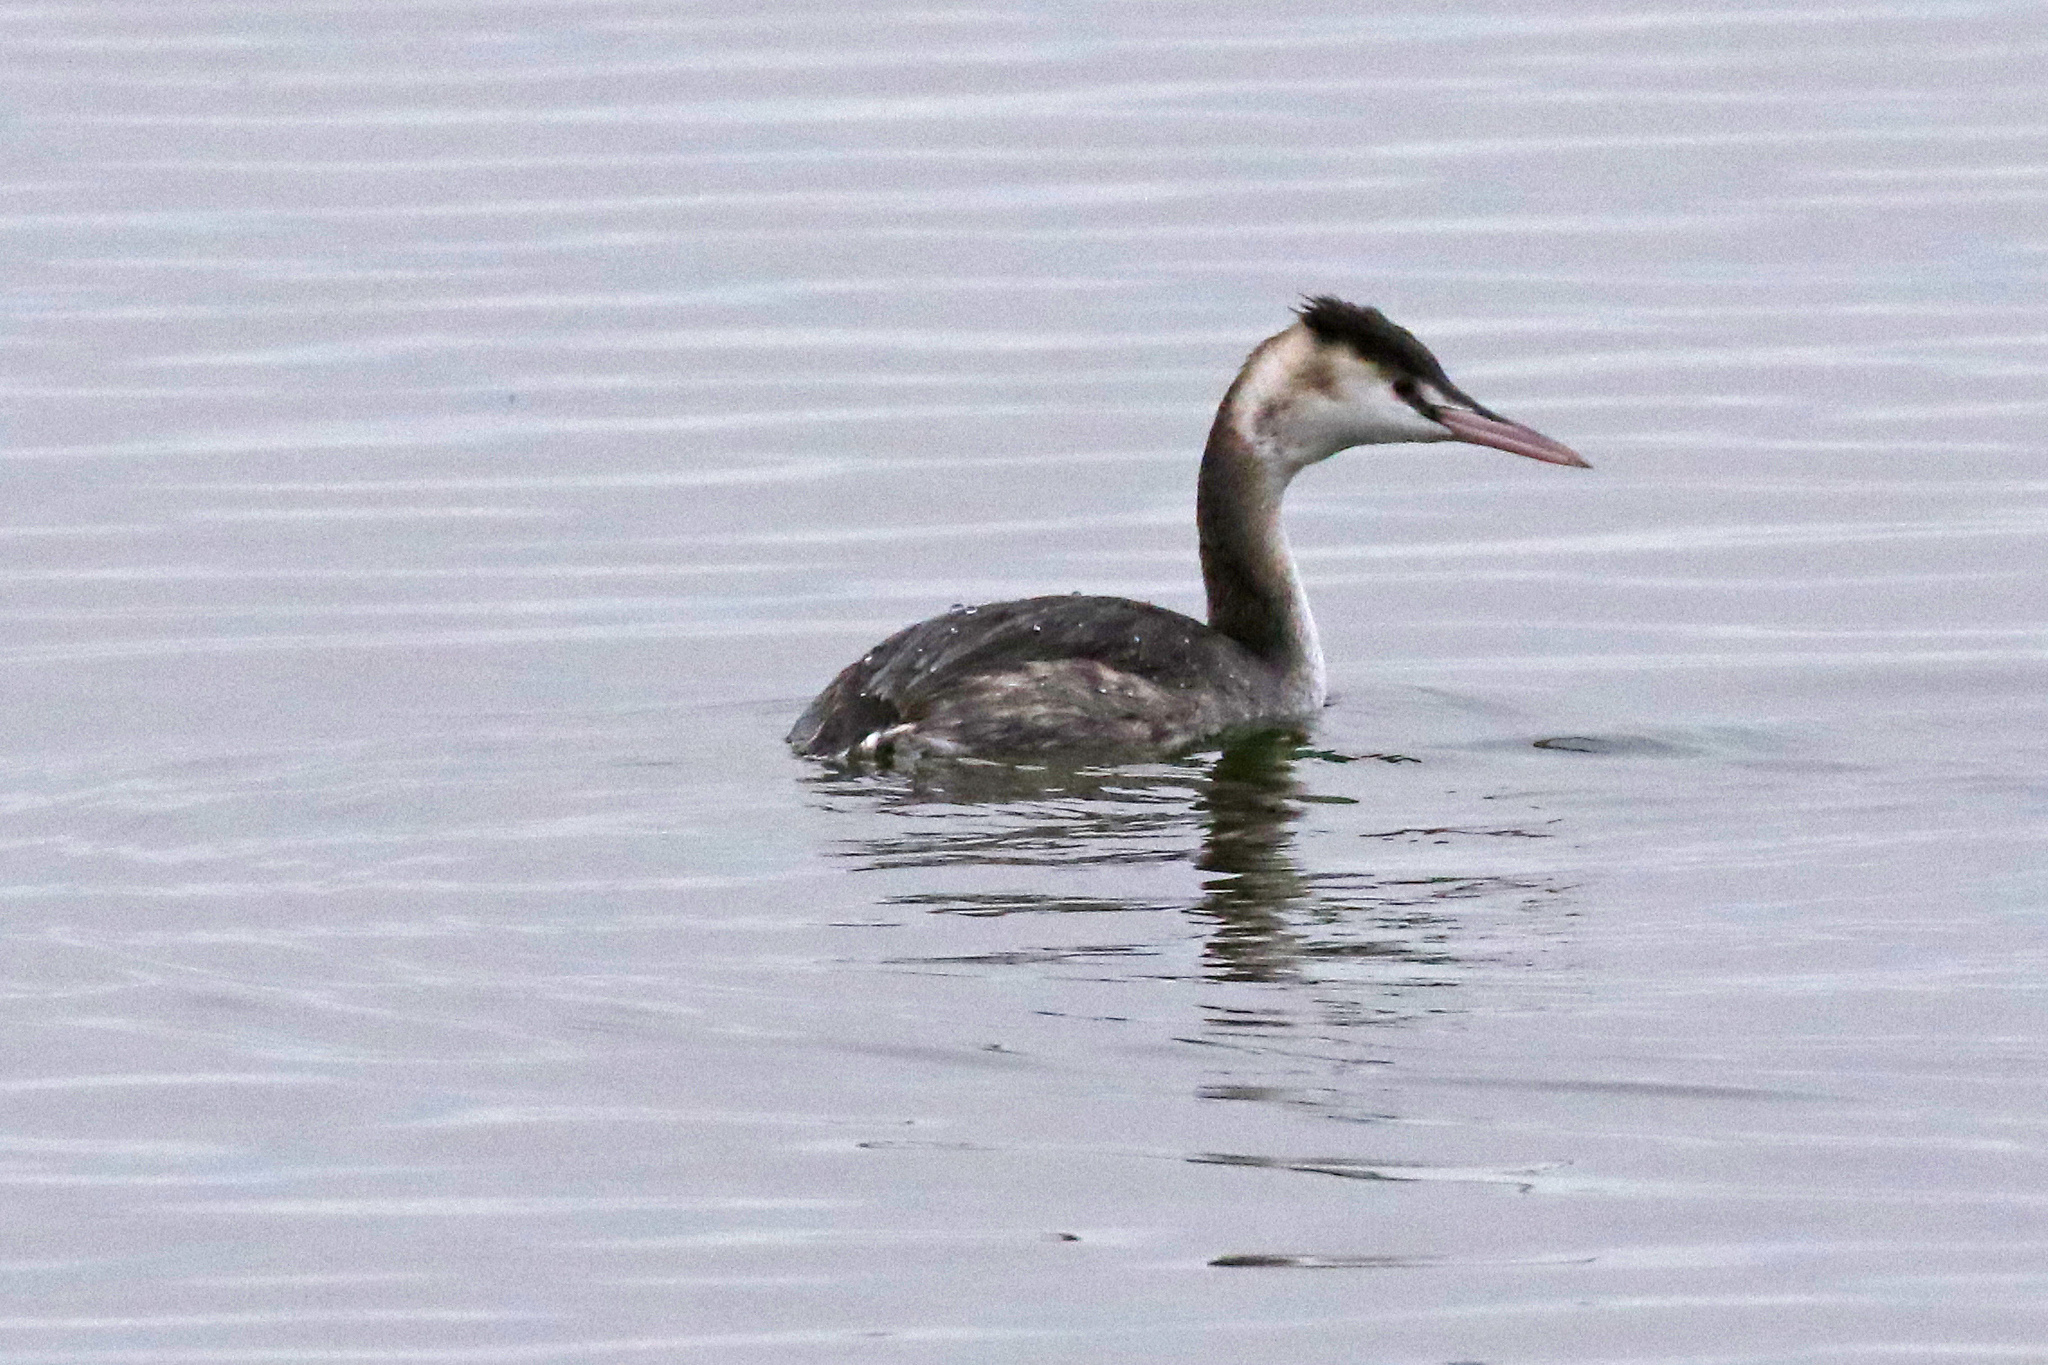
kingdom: Animalia
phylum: Chordata
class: Aves
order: Podicipediformes
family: Podicipedidae
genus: Podiceps
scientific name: Podiceps cristatus
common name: Great crested grebe
